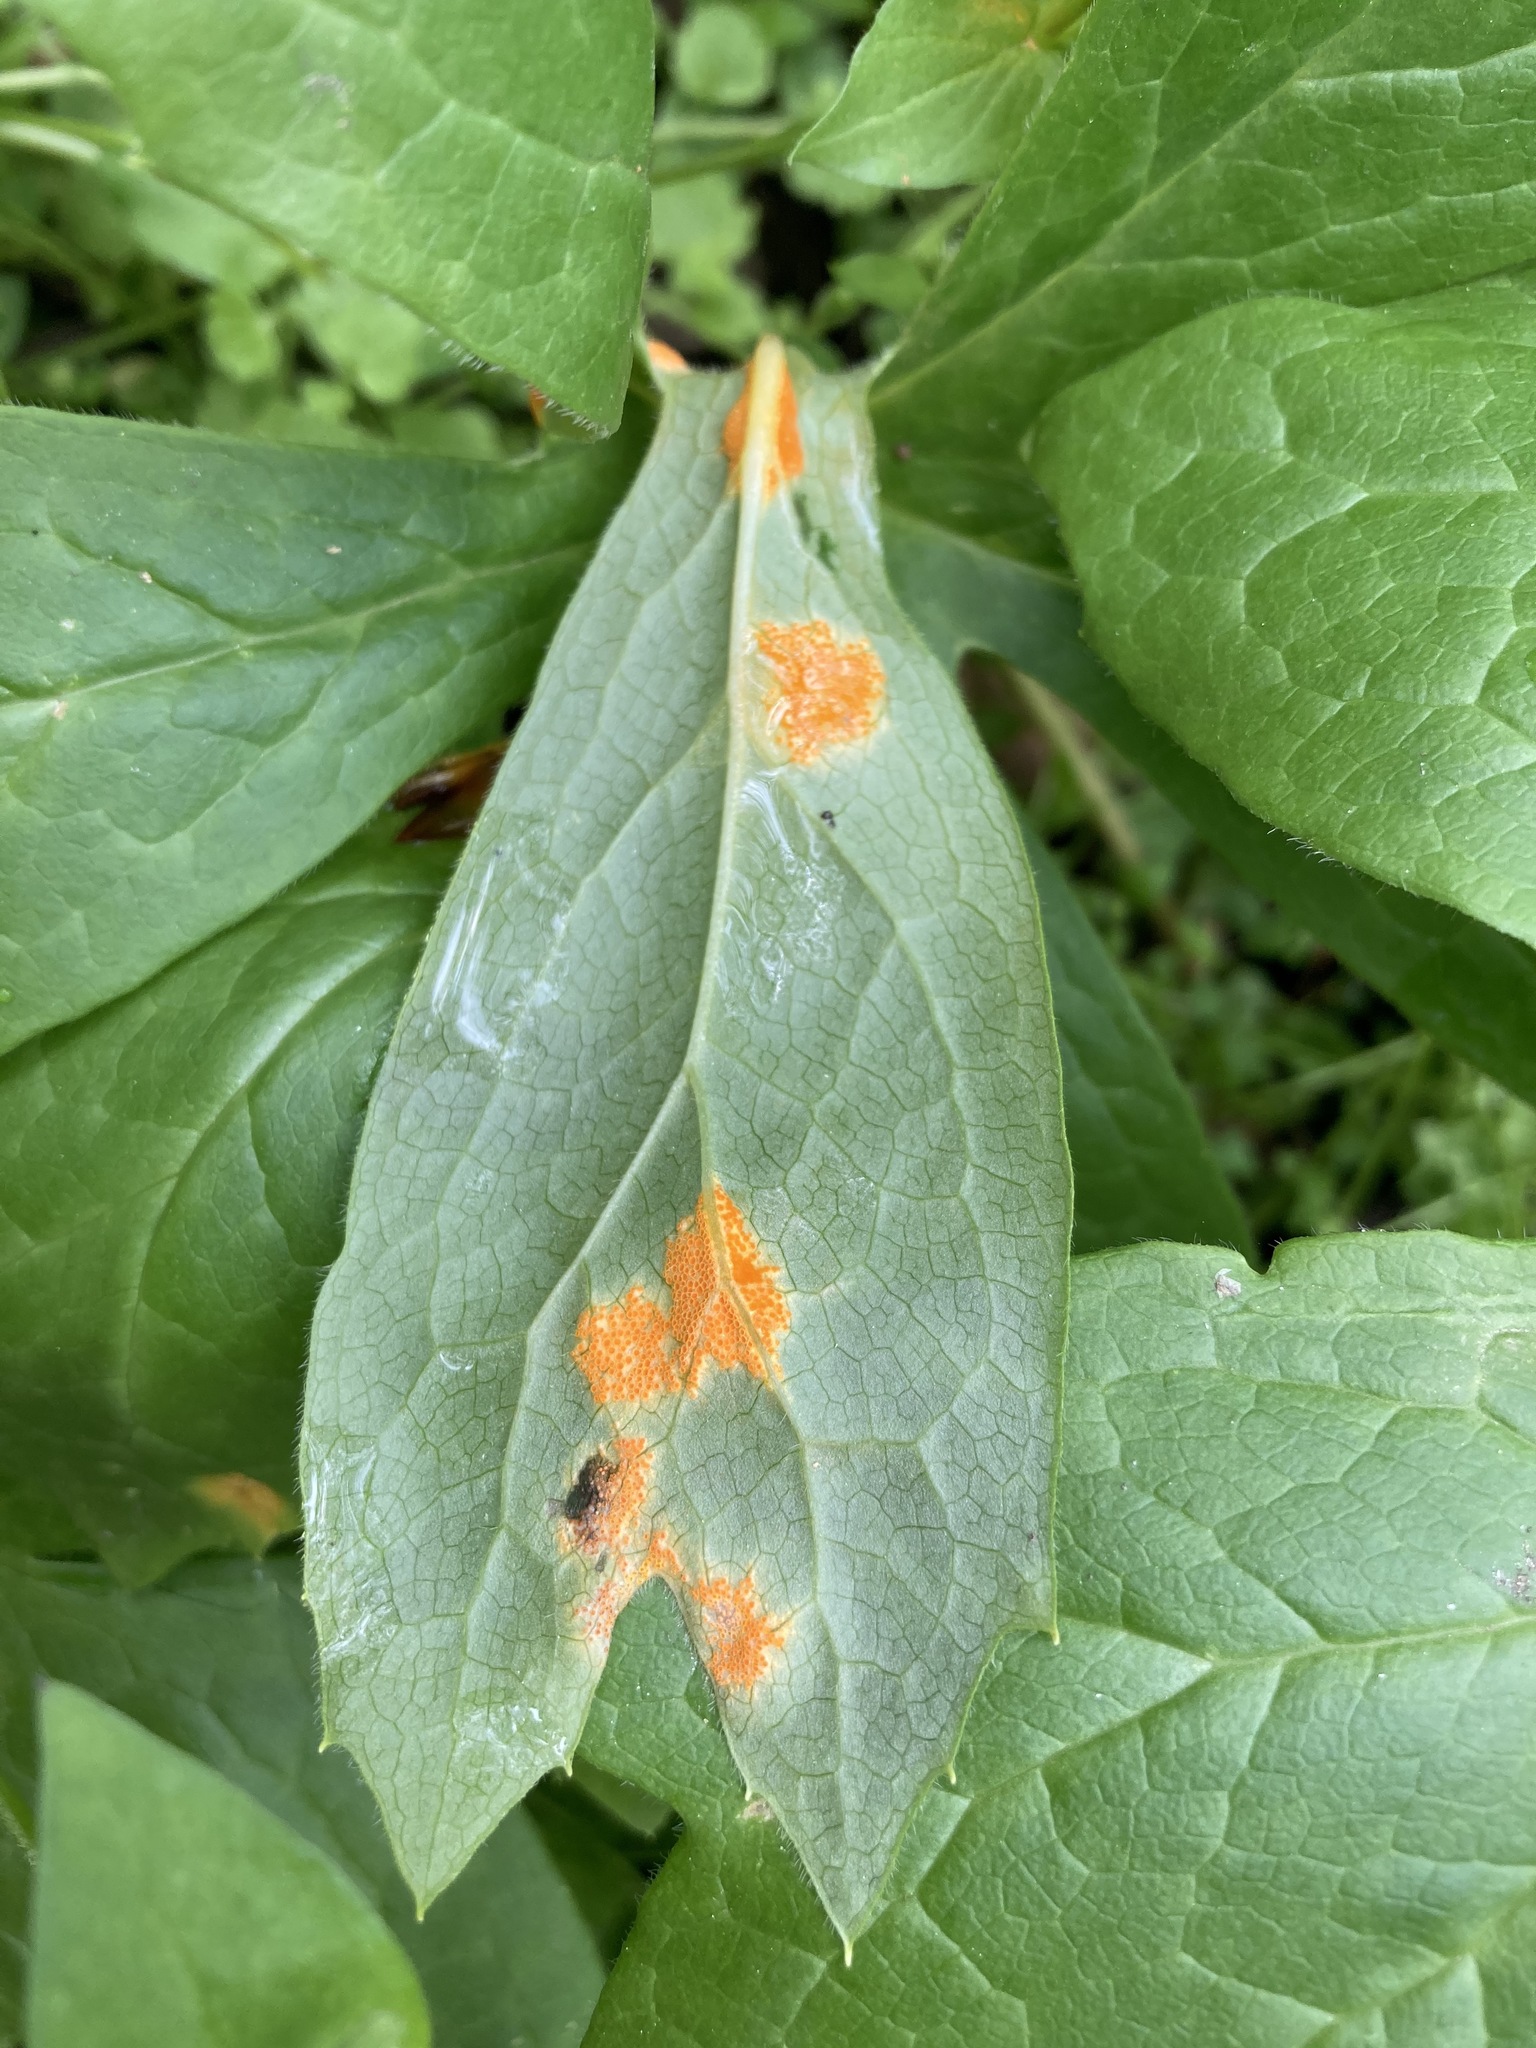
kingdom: Fungi
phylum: Basidiomycota
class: Pucciniomycetes
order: Pucciniales
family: Pucciniaceae
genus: Puccinia
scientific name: Puccinia podophylli
